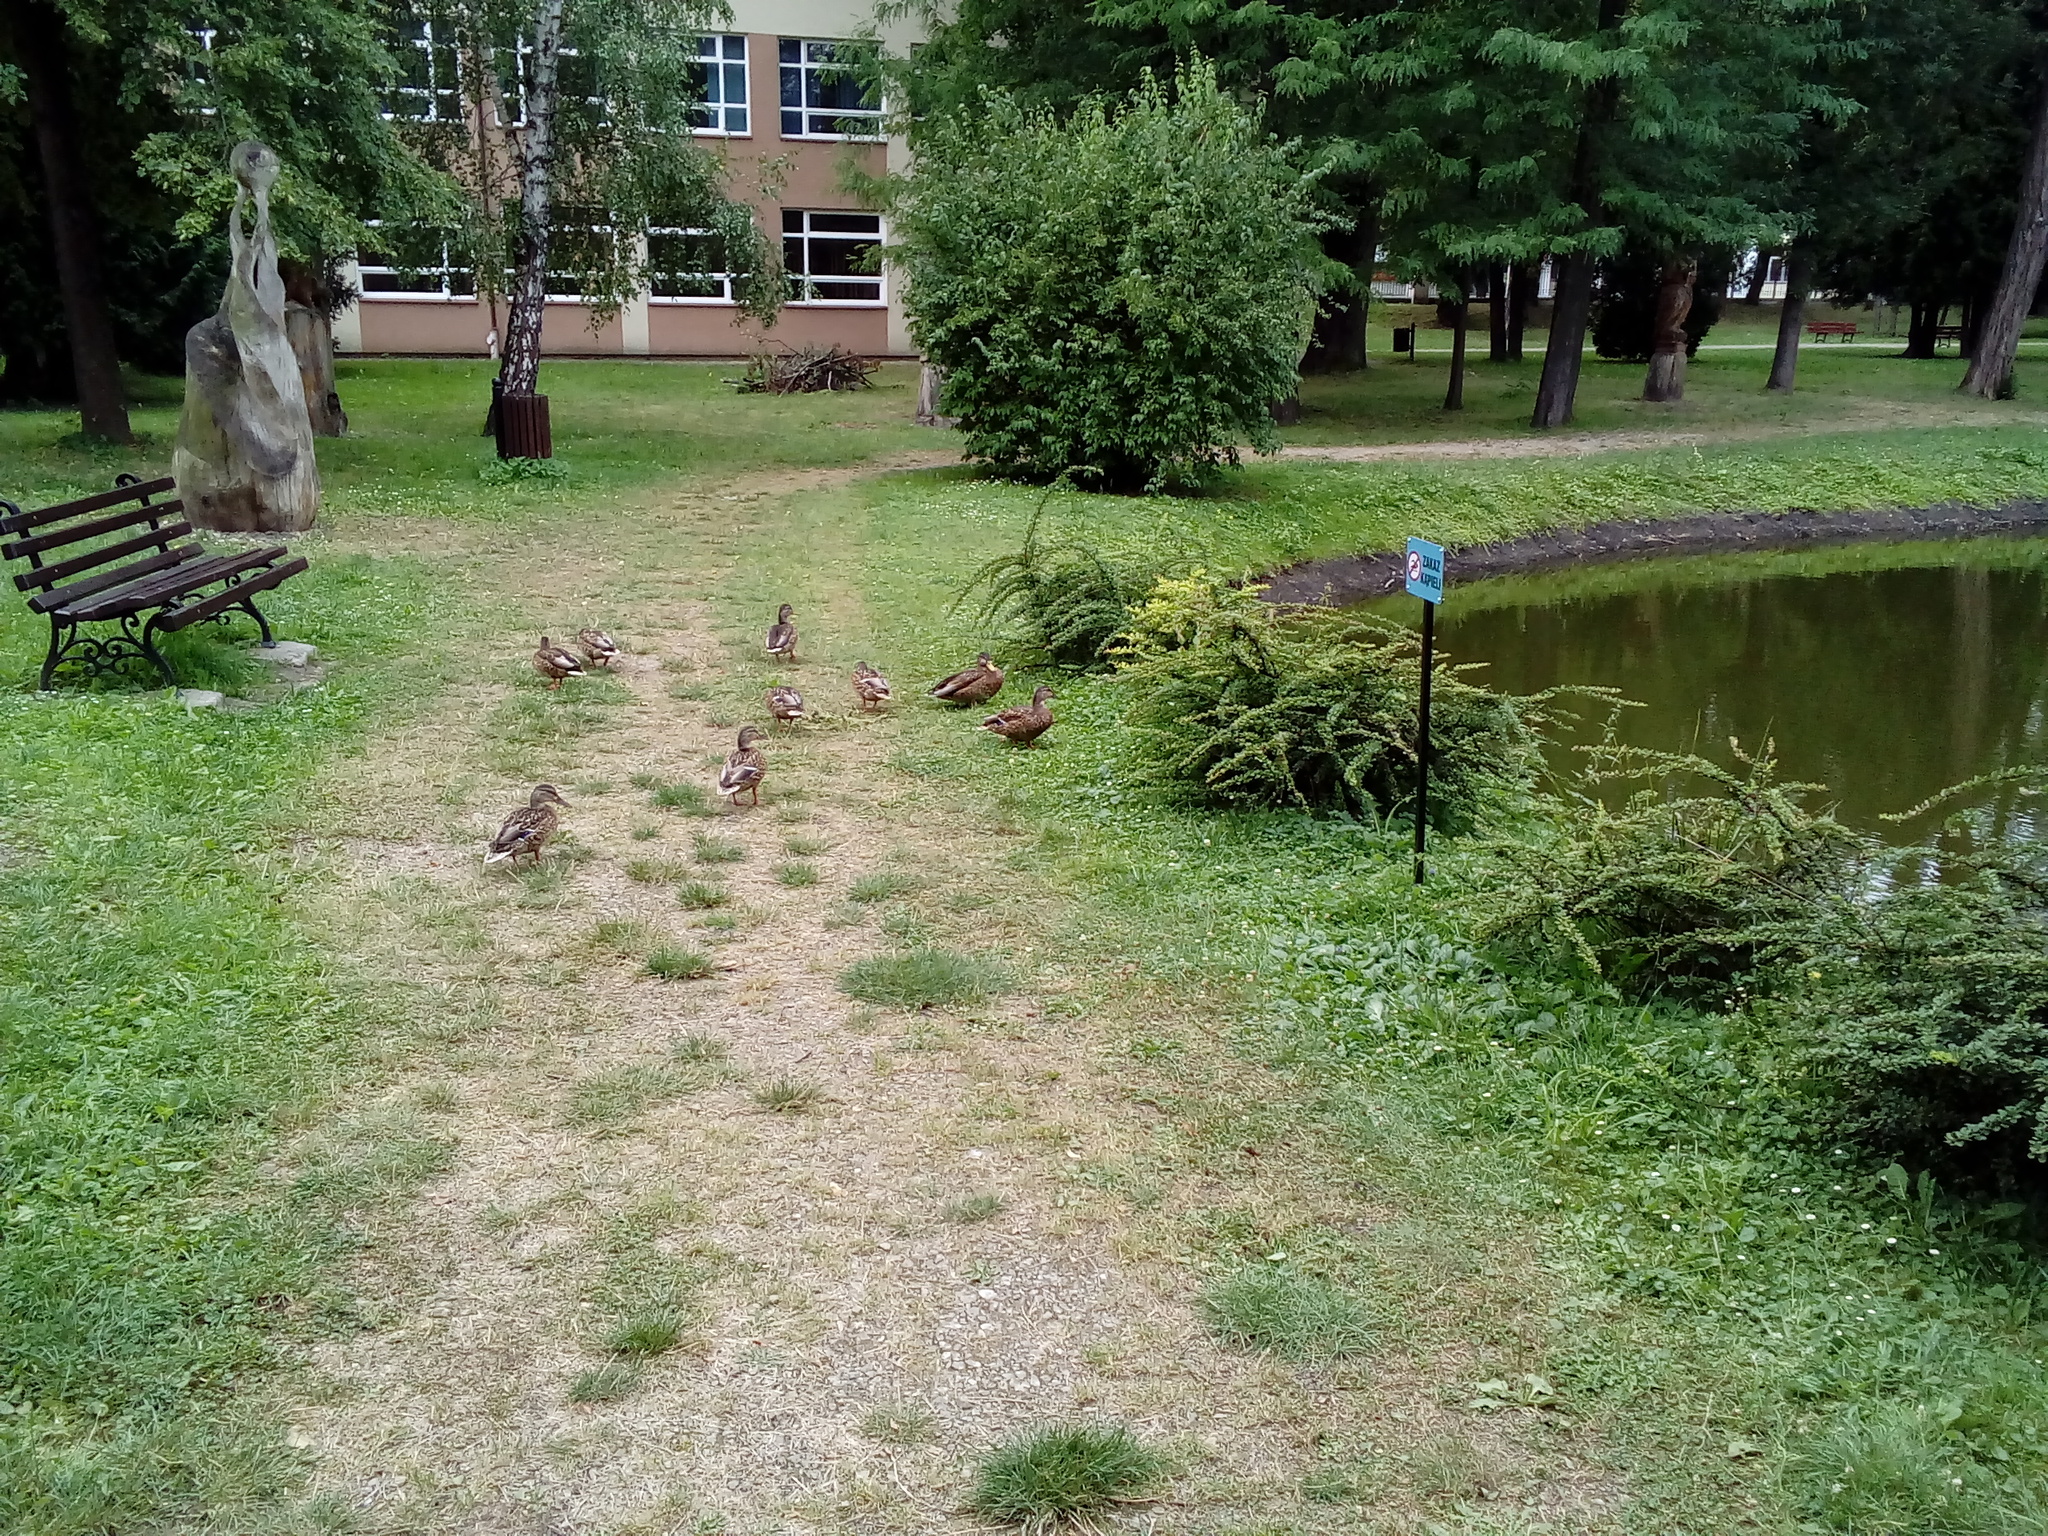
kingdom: Animalia
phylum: Chordata
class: Aves
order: Anseriformes
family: Anatidae
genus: Anas
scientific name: Anas platyrhynchos
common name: Mallard
